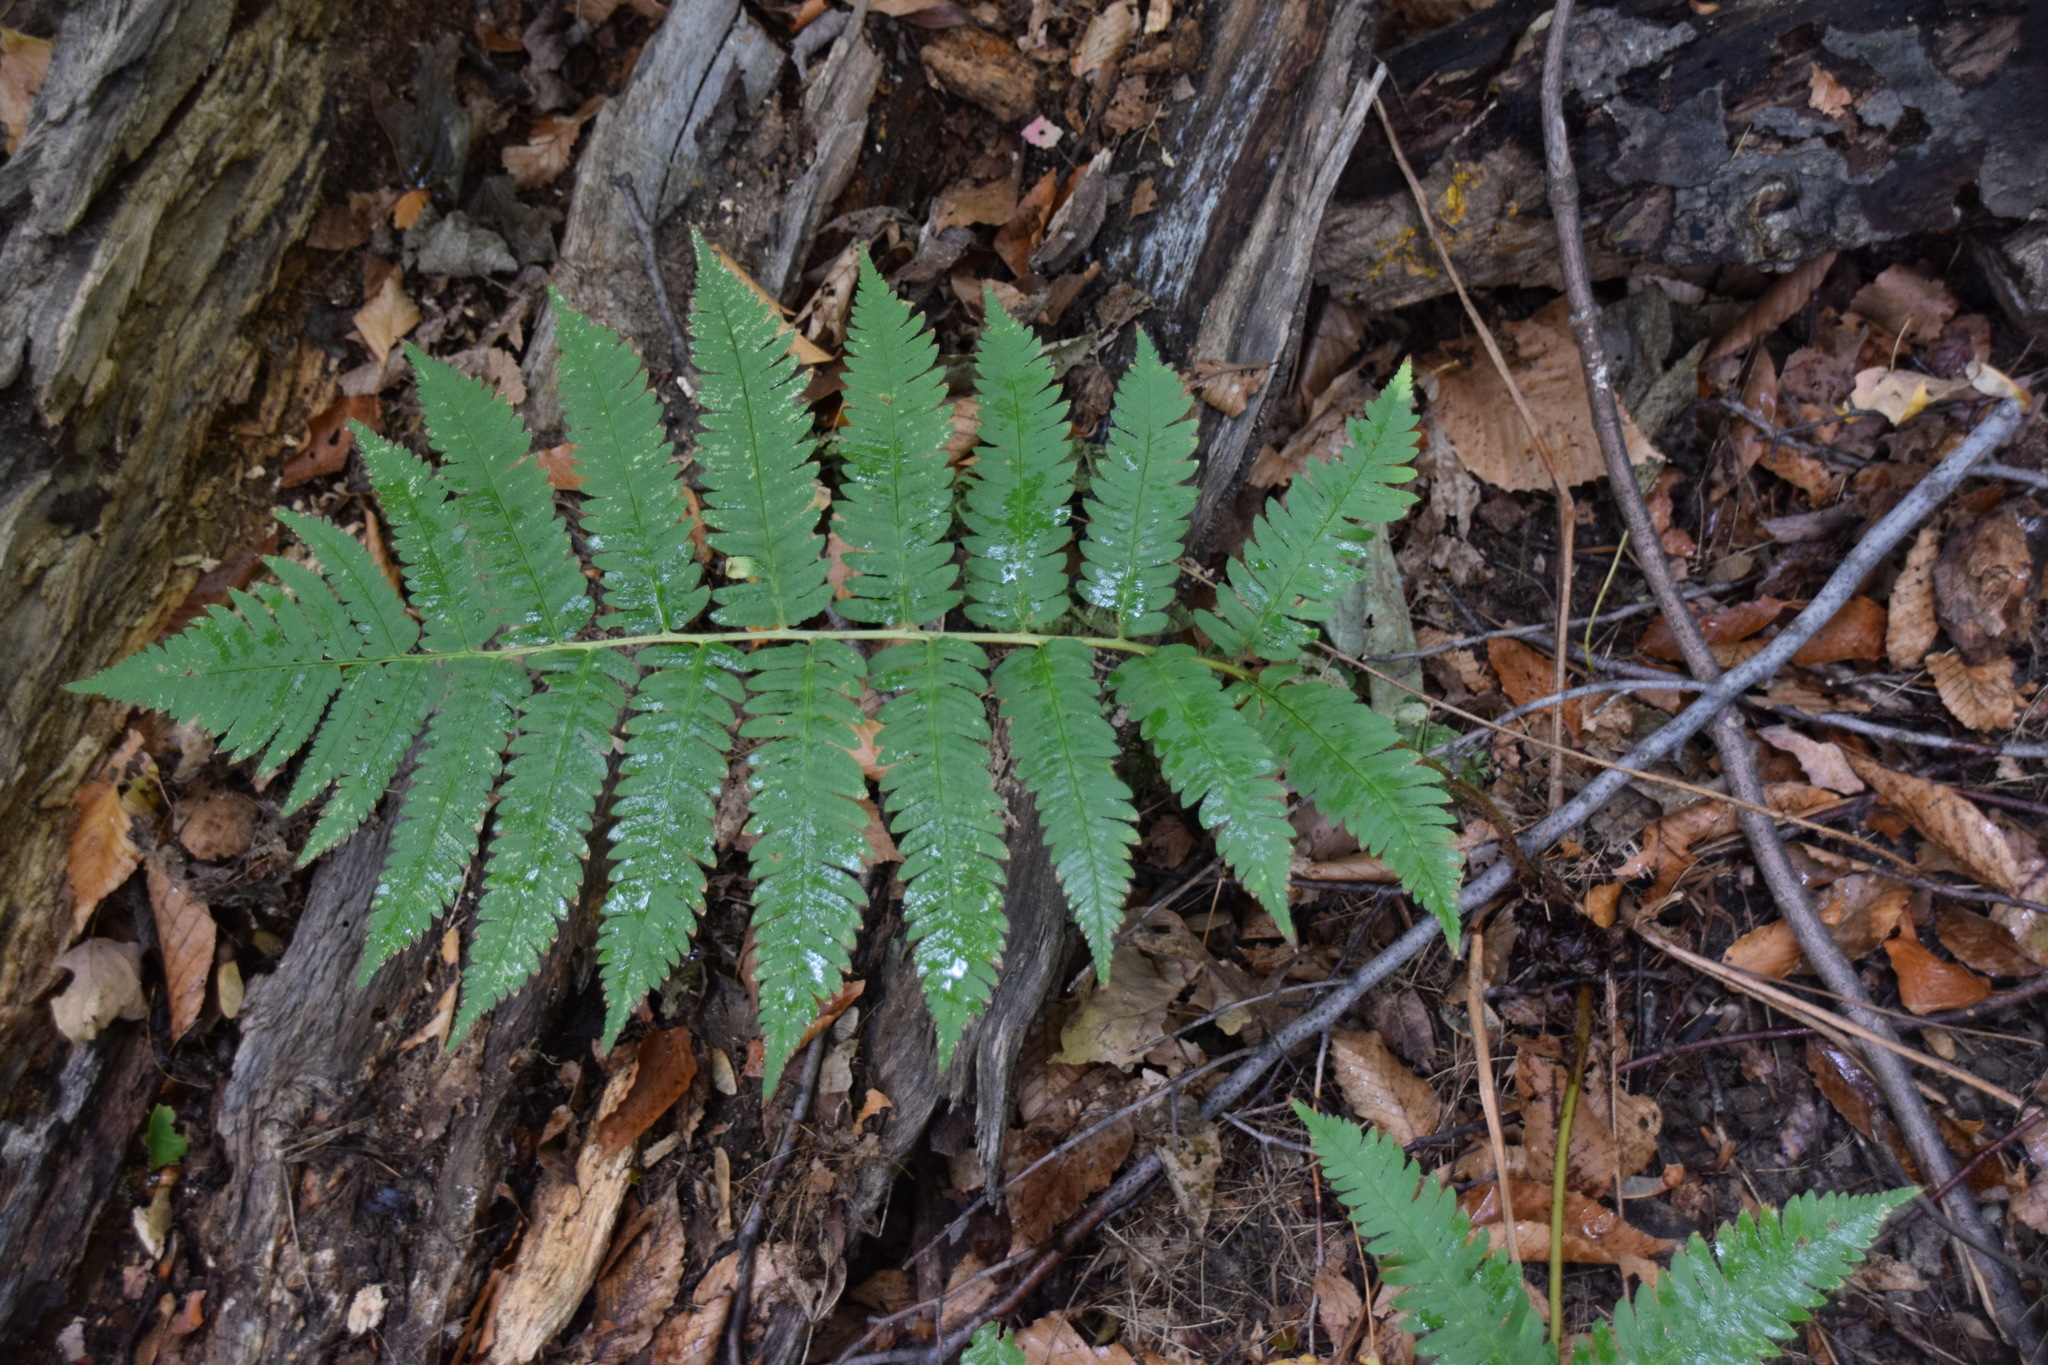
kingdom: Plantae
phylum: Tracheophyta
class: Polypodiopsida
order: Polypodiales
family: Dryopteridaceae
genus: Dryopteris
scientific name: Dryopteris goldieana
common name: Goldie's fern
